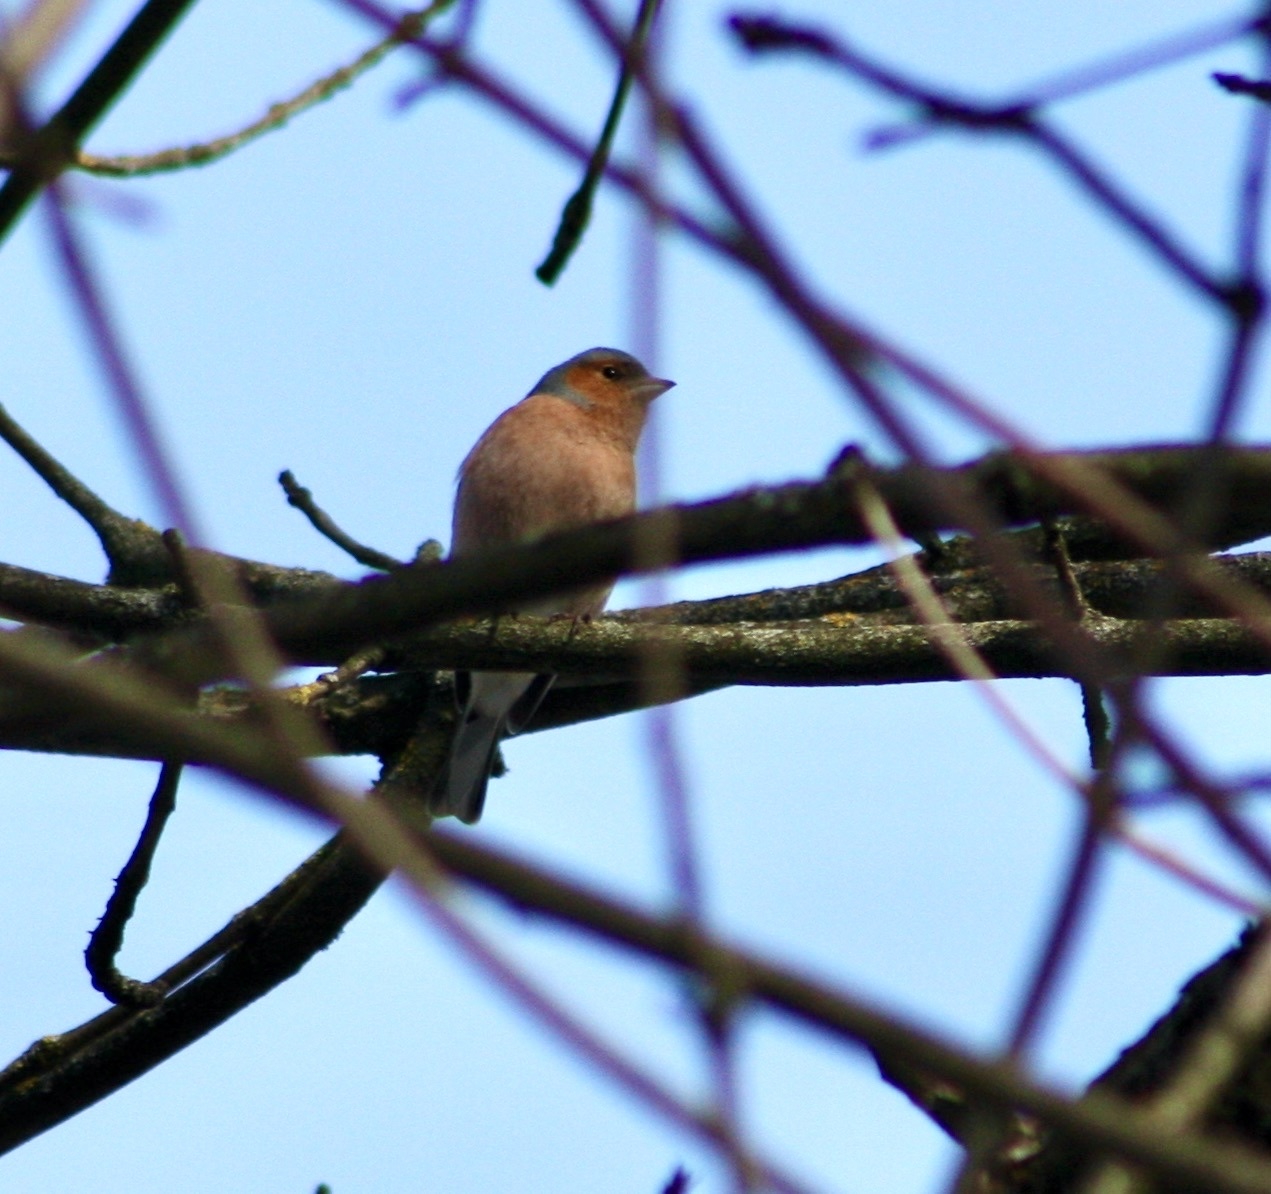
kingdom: Animalia
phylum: Chordata
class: Aves
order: Passeriformes
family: Fringillidae
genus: Fringilla
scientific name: Fringilla coelebs
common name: Common chaffinch
